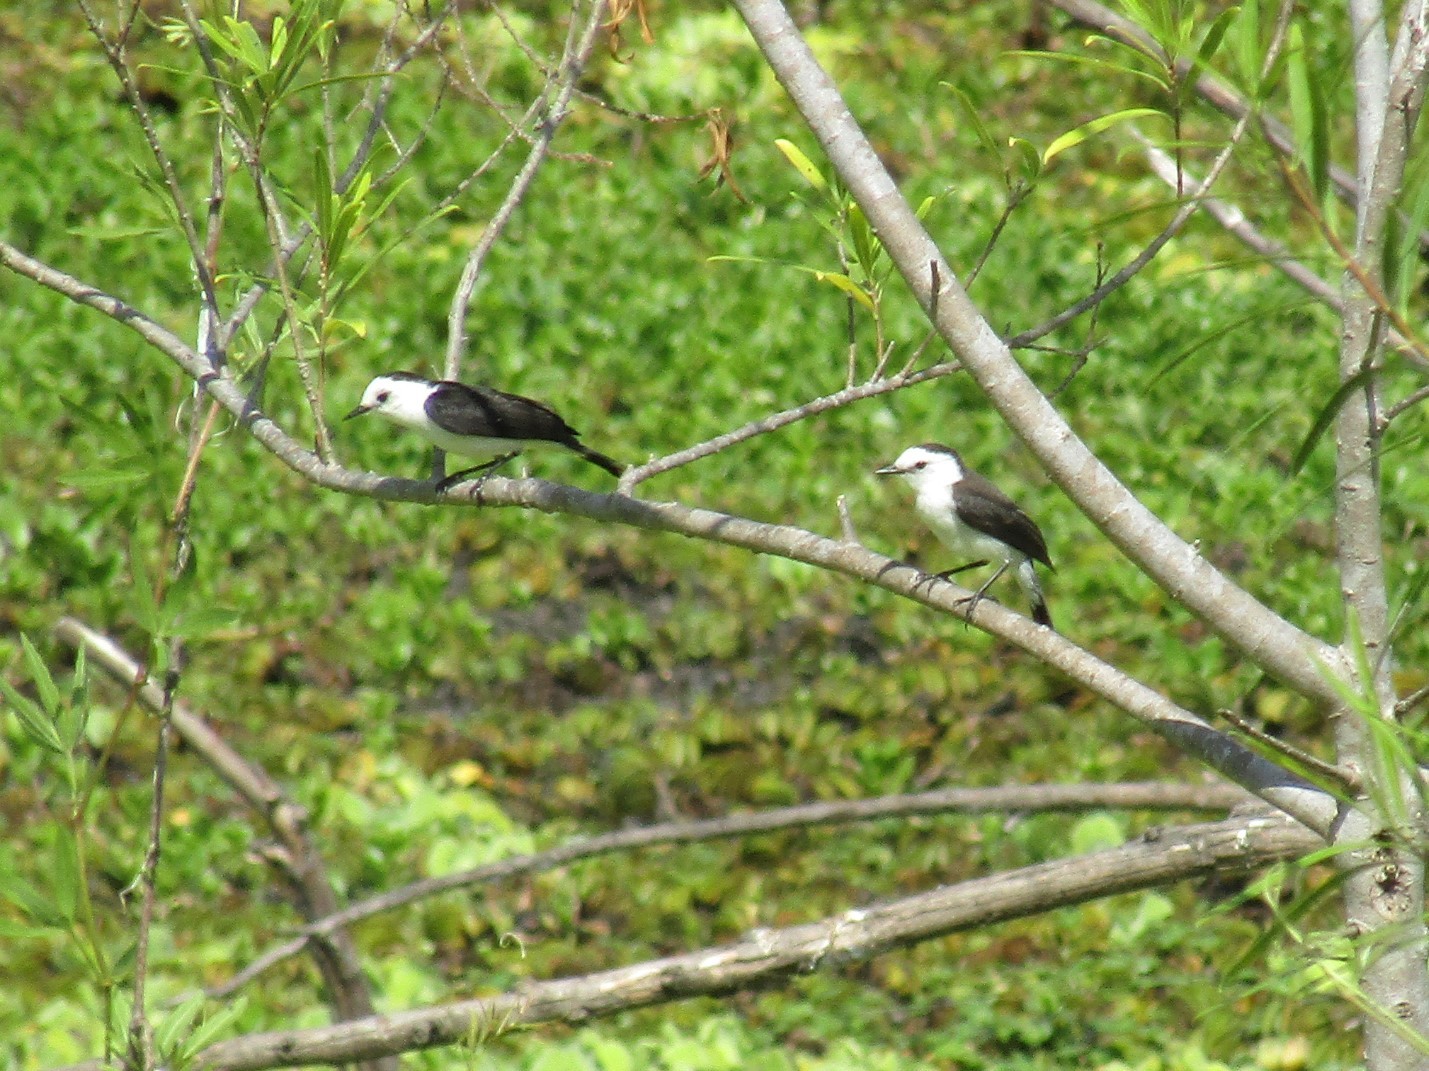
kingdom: Animalia
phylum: Chordata
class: Aves
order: Passeriformes
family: Tyrannidae
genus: Fluvicola
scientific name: Fluvicola pica
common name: Pied water-tyrant
